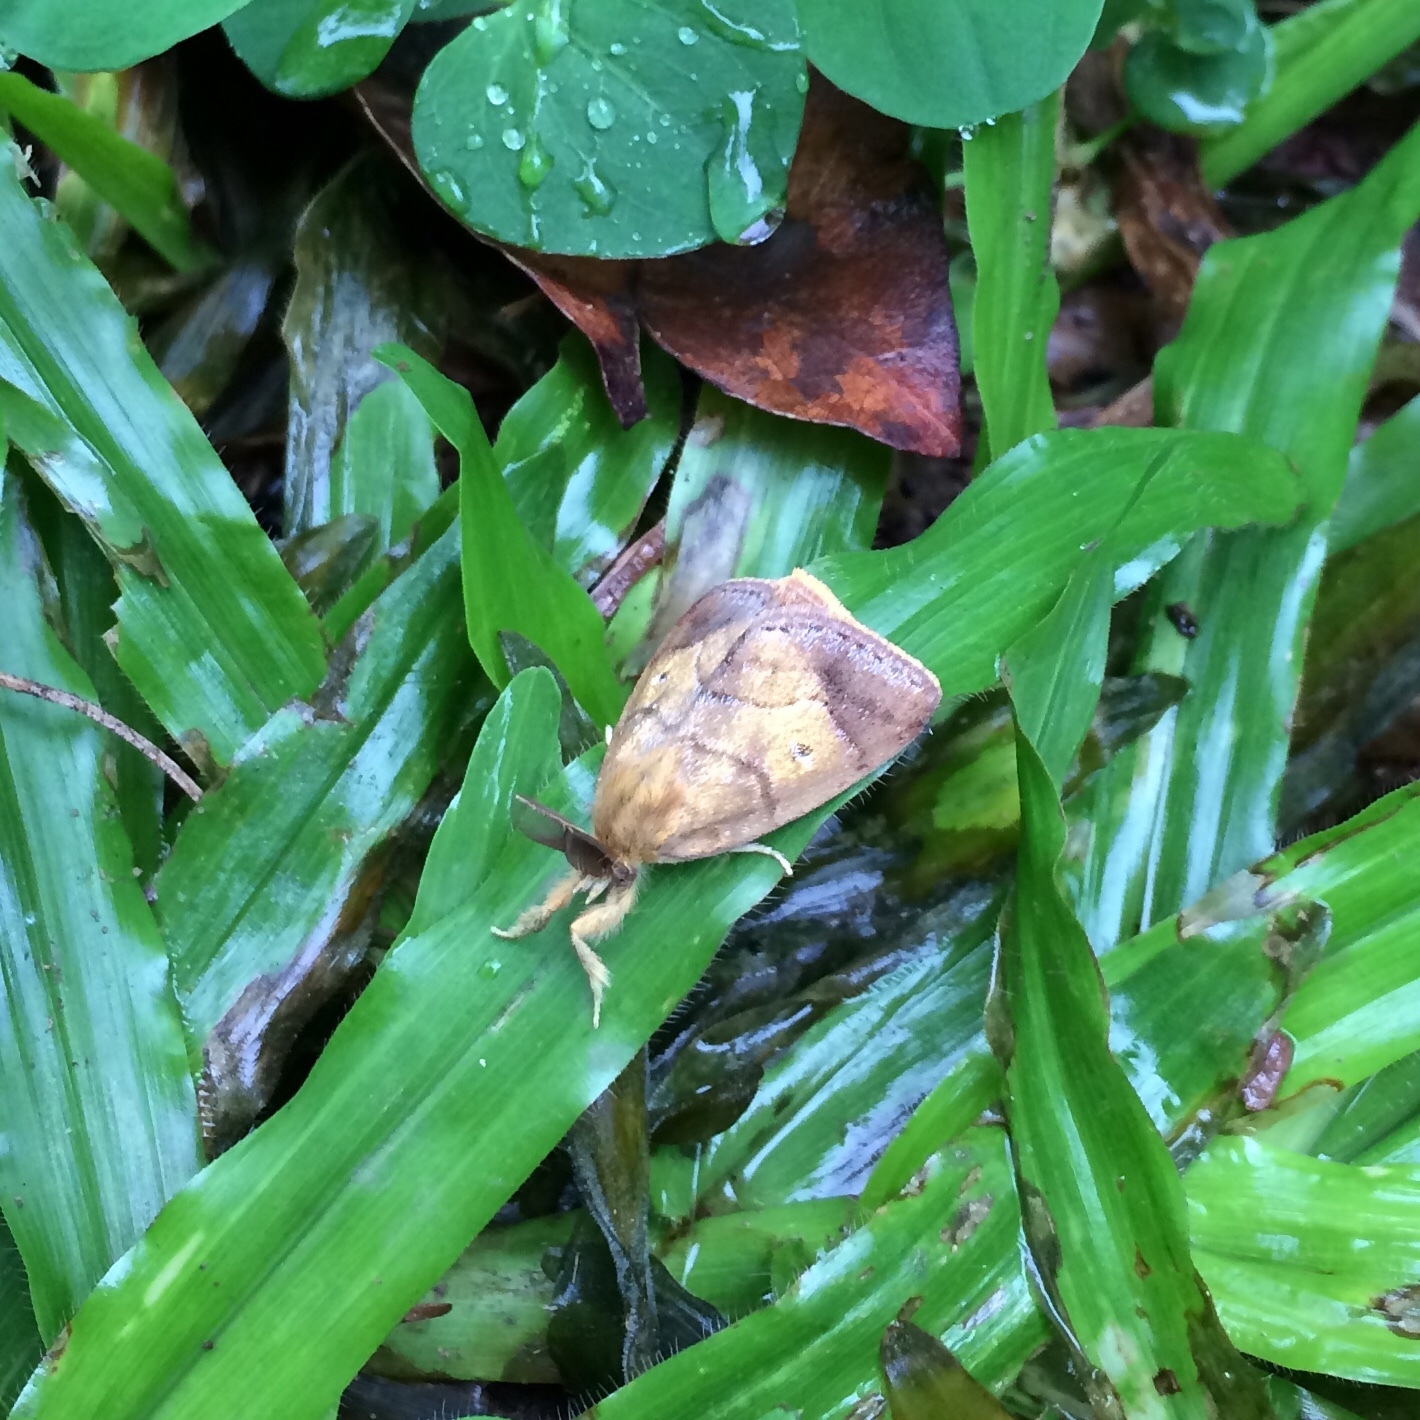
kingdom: Animalia
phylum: Arthropoda
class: Insecta
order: Lepidoptera
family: Erebidae
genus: Aroa
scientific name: Aroa discalis
